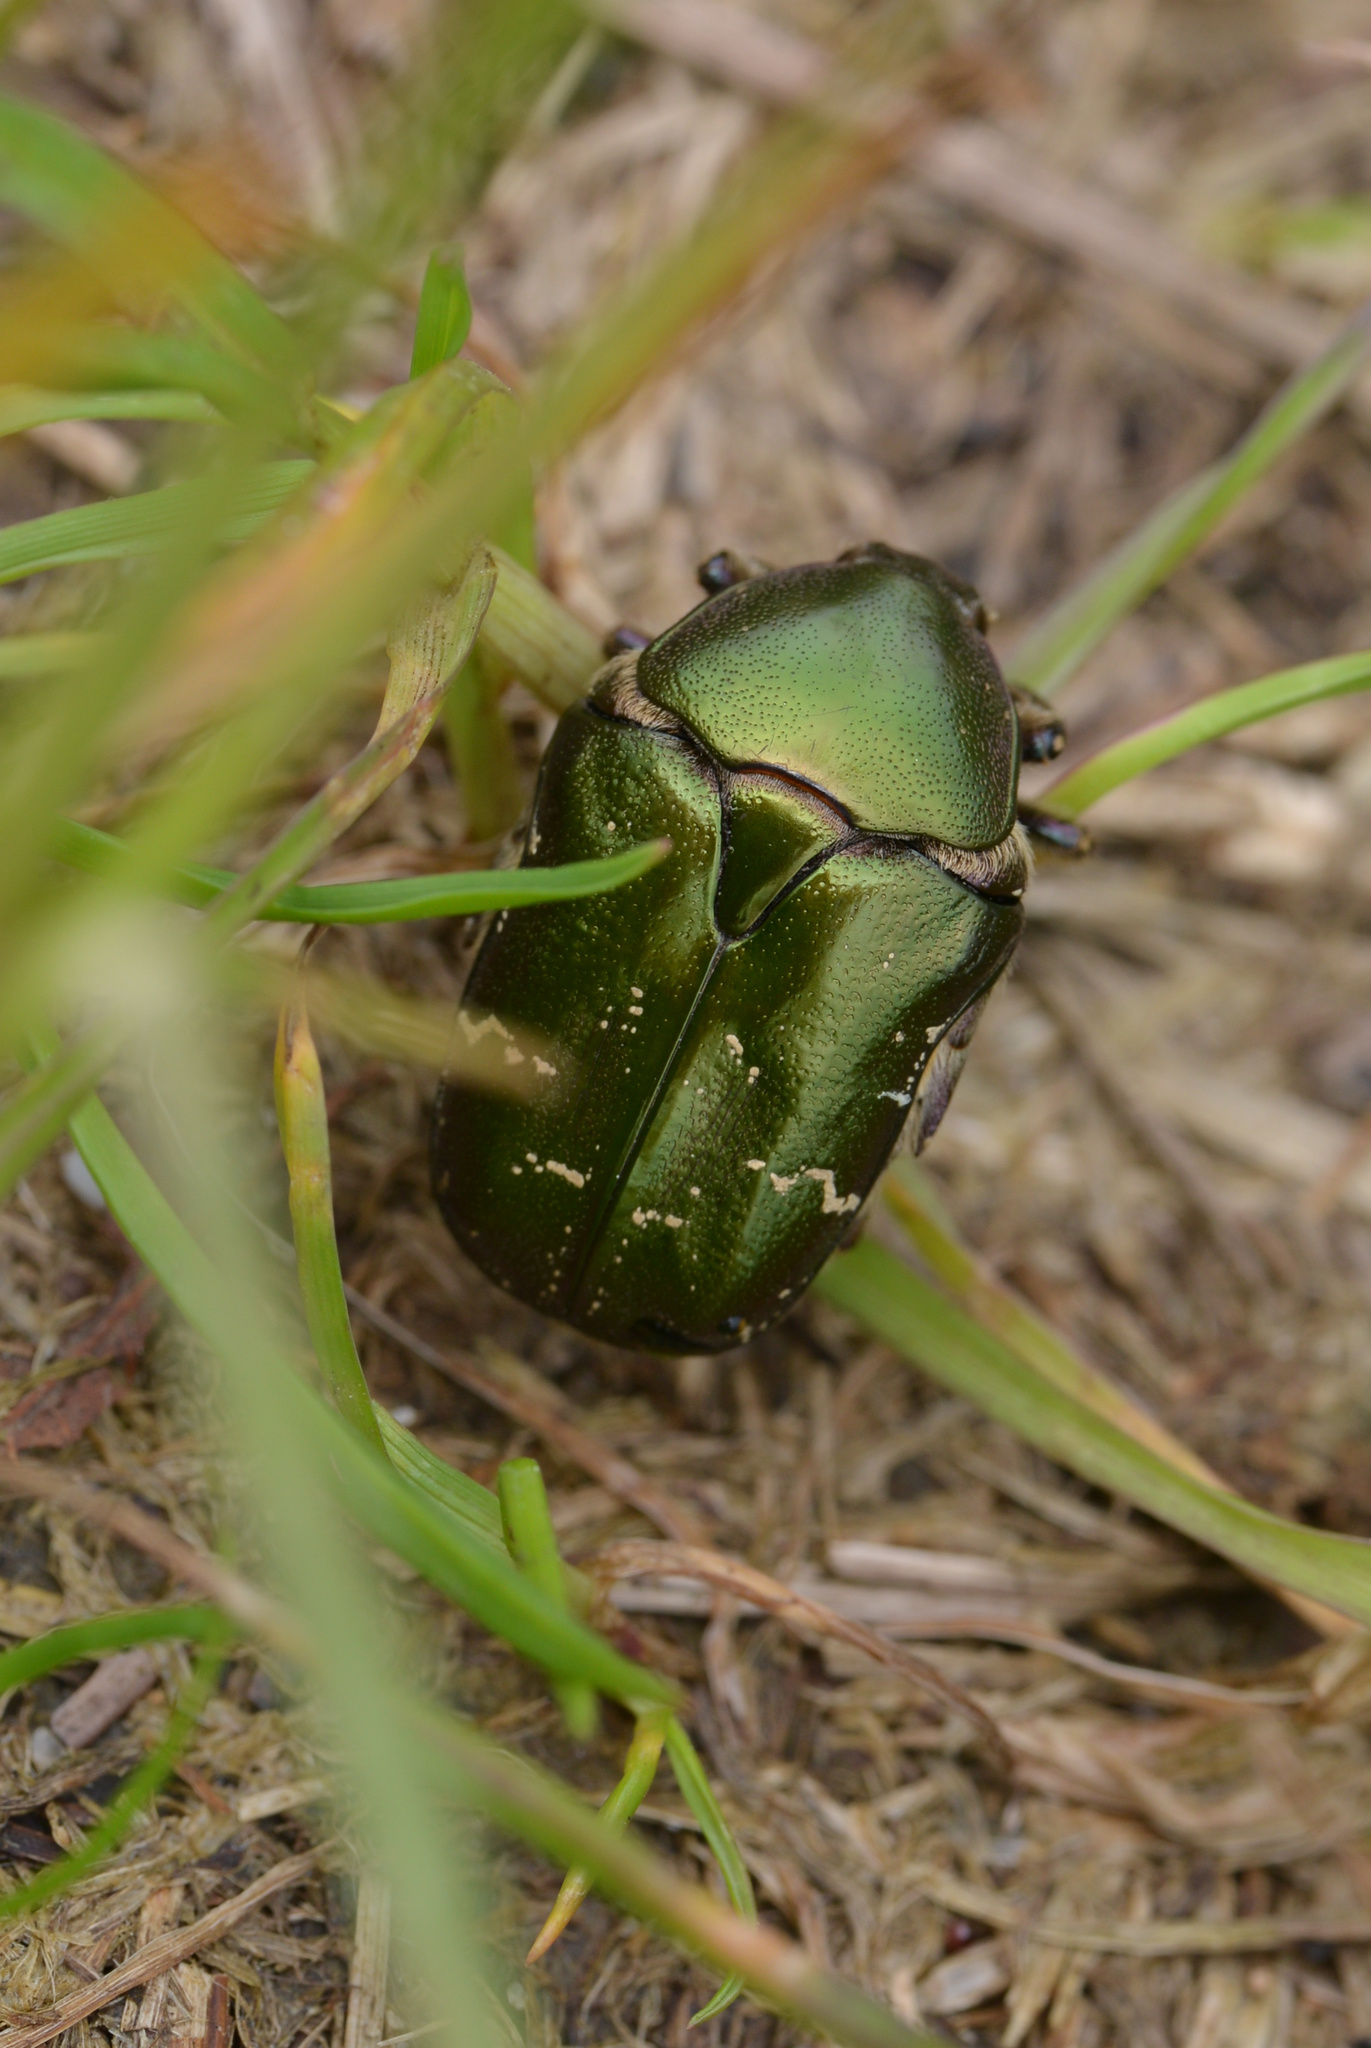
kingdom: Animalia
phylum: Arthropoda
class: Insecta
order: Coleoptera
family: Scarabaeidae
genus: Protaetia
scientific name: Protaetia cuprea
